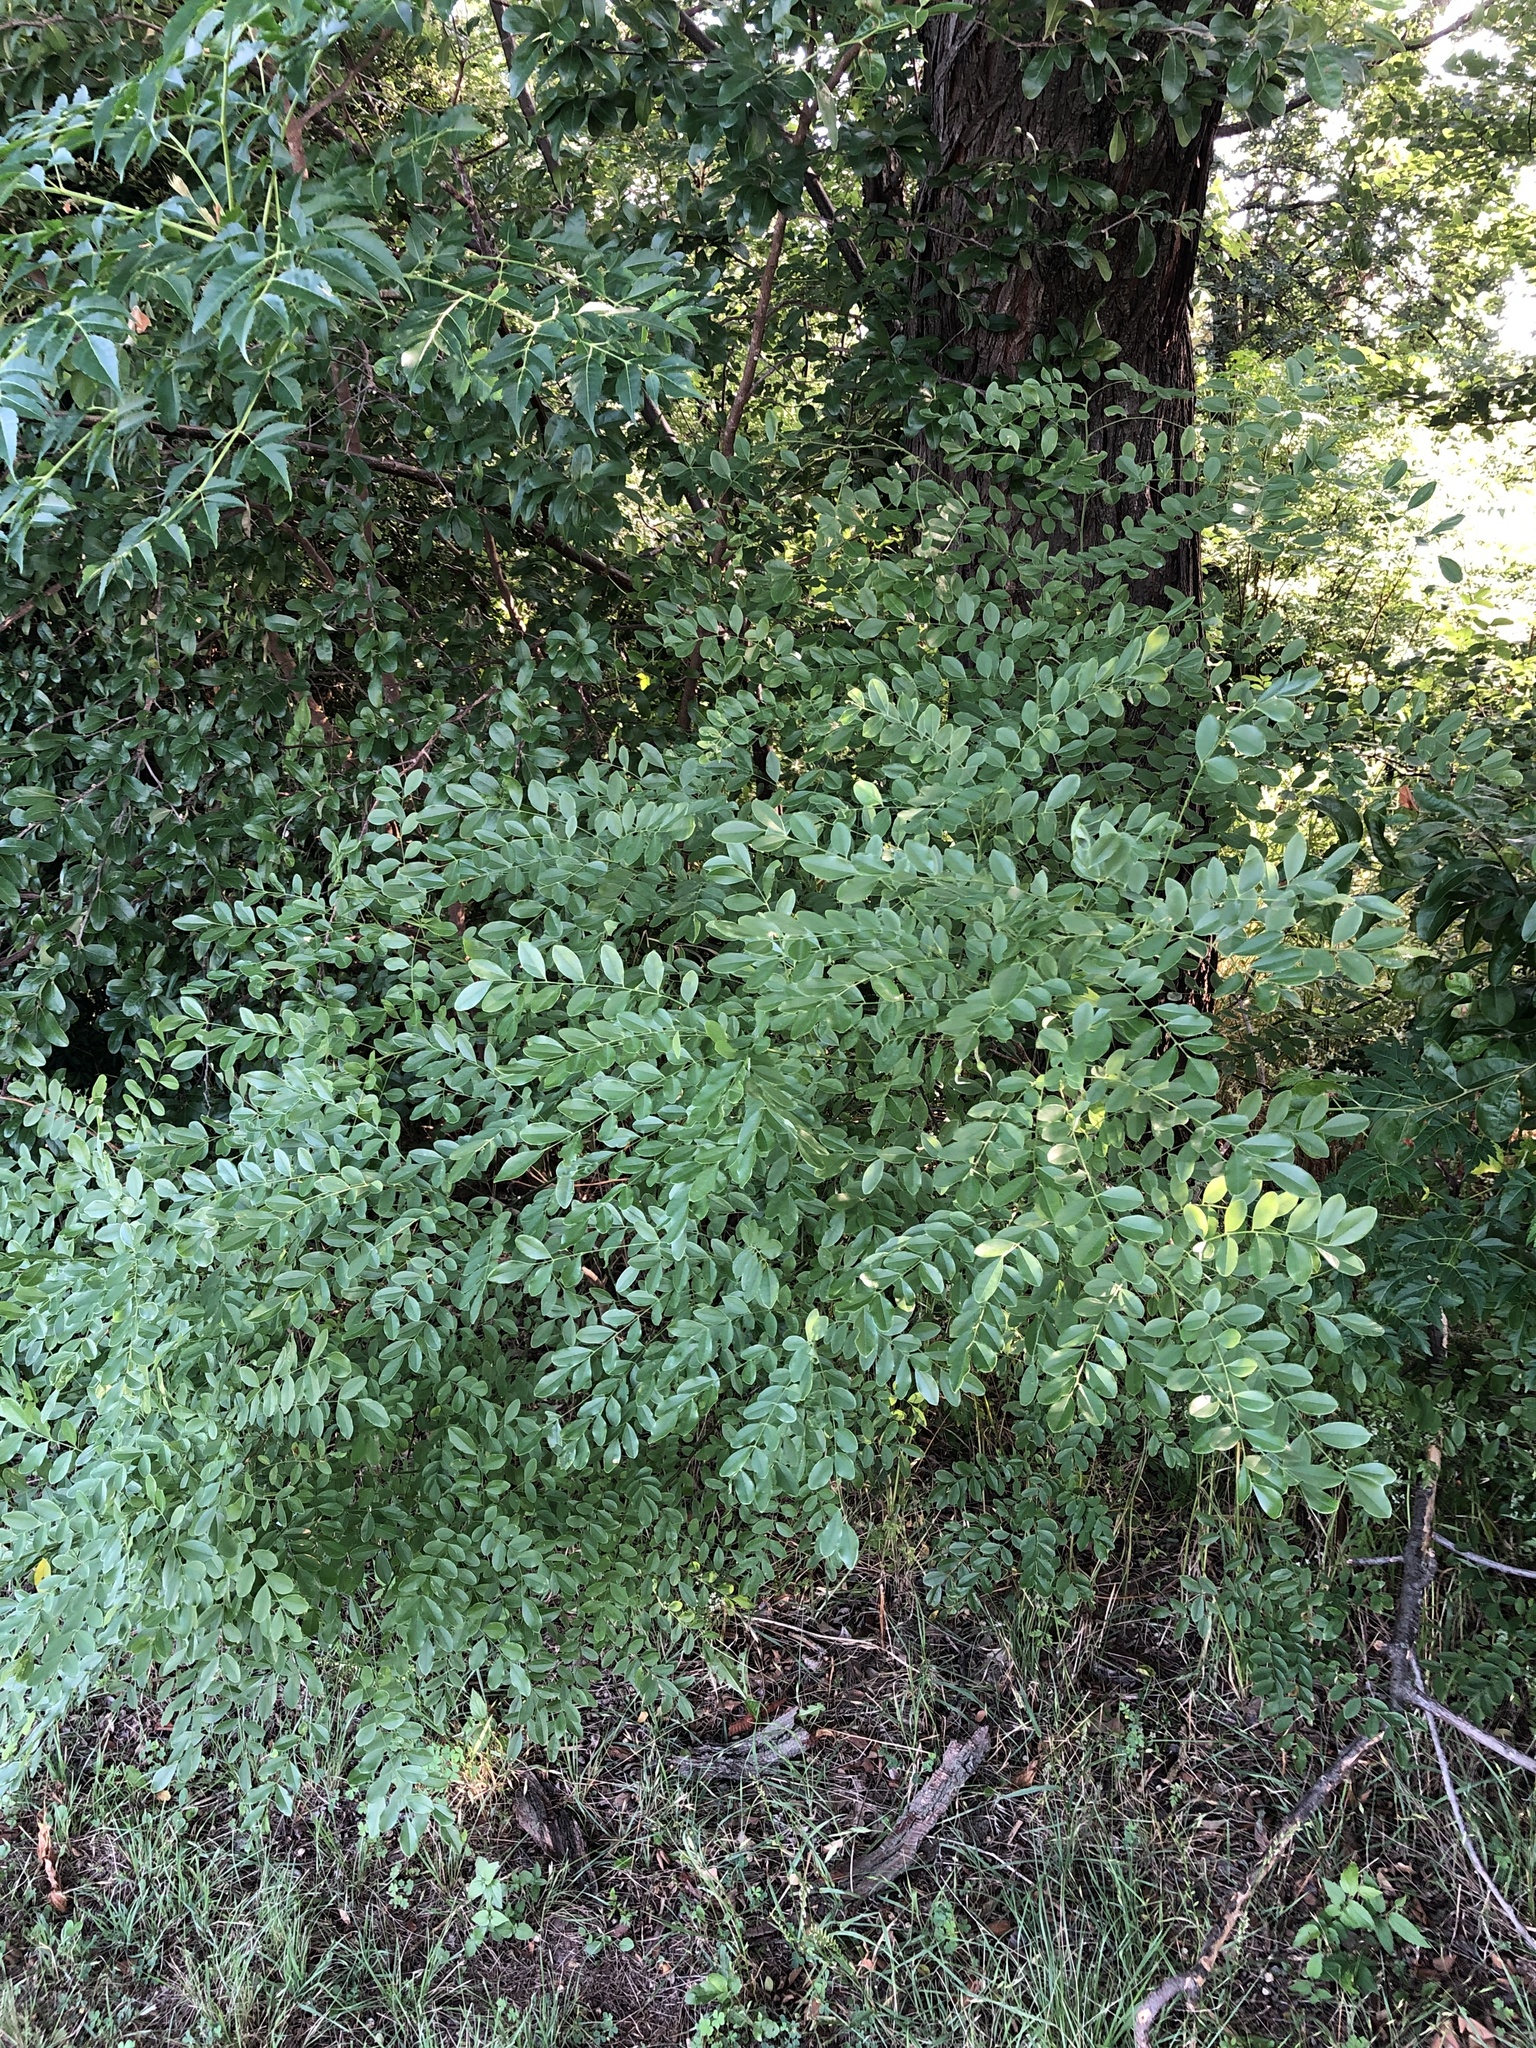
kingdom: Plantae
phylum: Tracheophyta
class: Magnoliopsida
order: Fabales
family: Fabaceae
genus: Styphnolobium
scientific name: Styphnolobium affine
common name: Texas sophora
